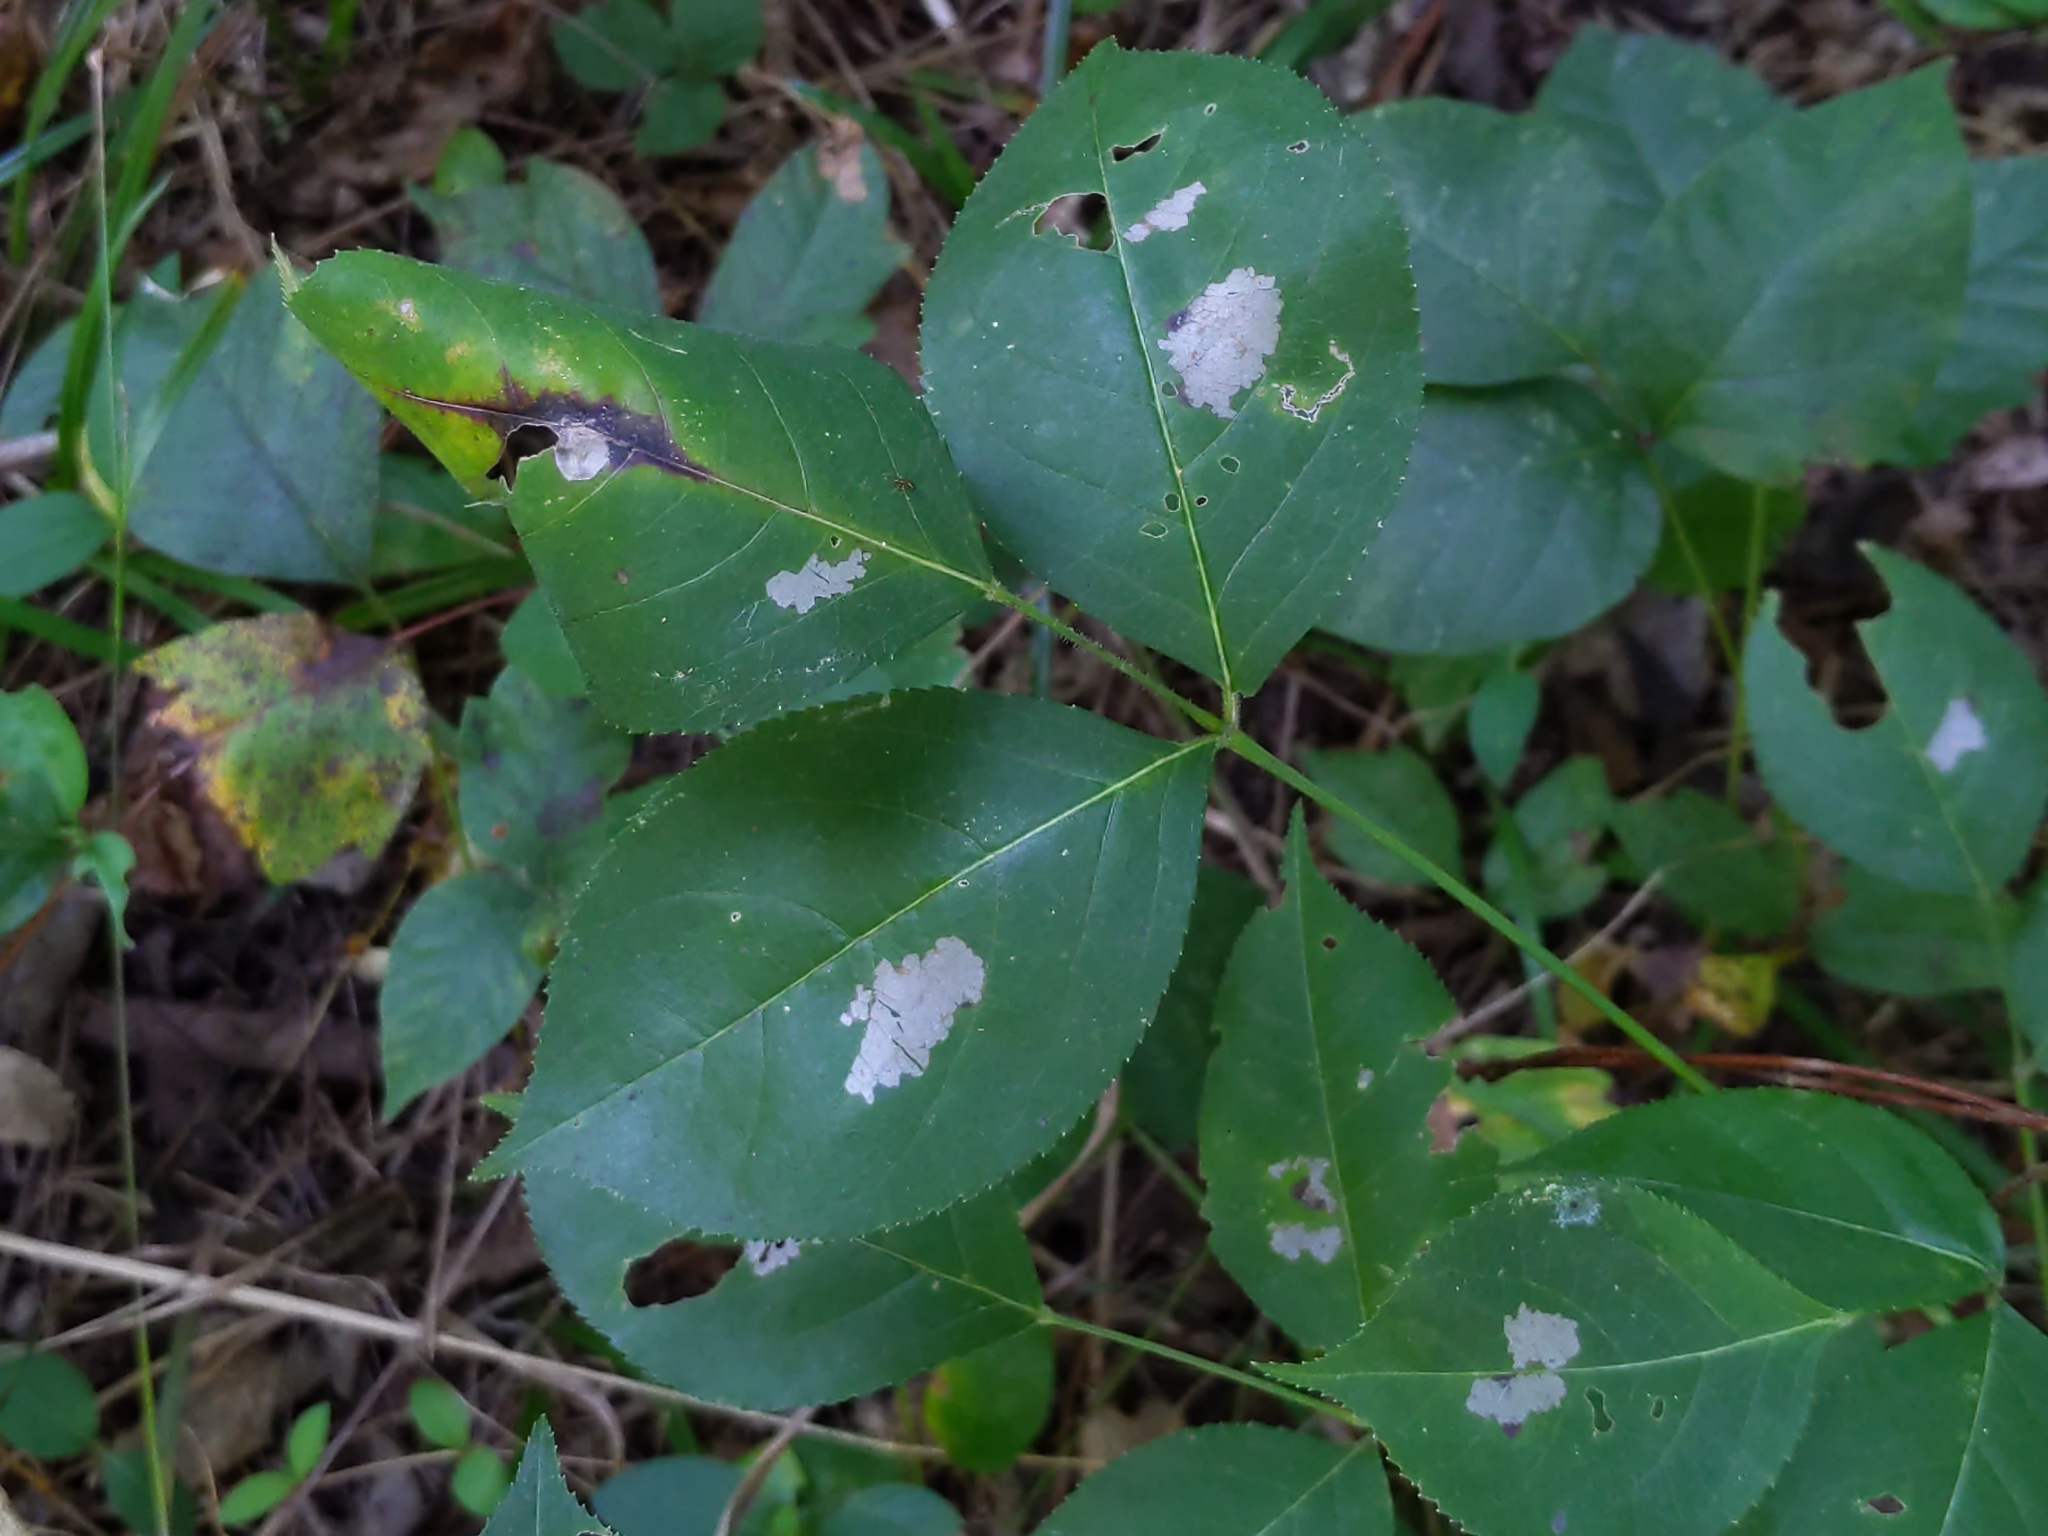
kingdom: Plantae
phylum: Tracheophyta
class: Magnoliopsida
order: Crossosomatales
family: Staphyleaceae
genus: Staphylea
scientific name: Staphylea trifolia
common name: American bladdernut
